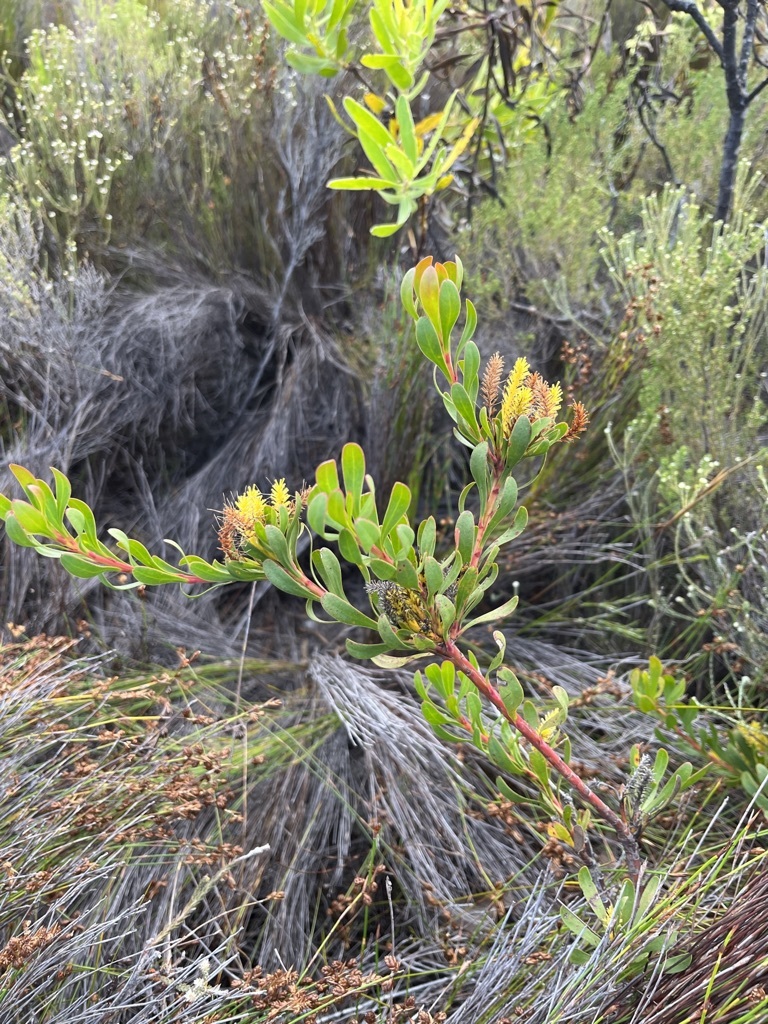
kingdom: Plantae
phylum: Tracheophyta
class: Magnoliopsida
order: Proteales
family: Proteaceae
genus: Aulax
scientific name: Aulax umbellata
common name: Broad-leaf featherbush
